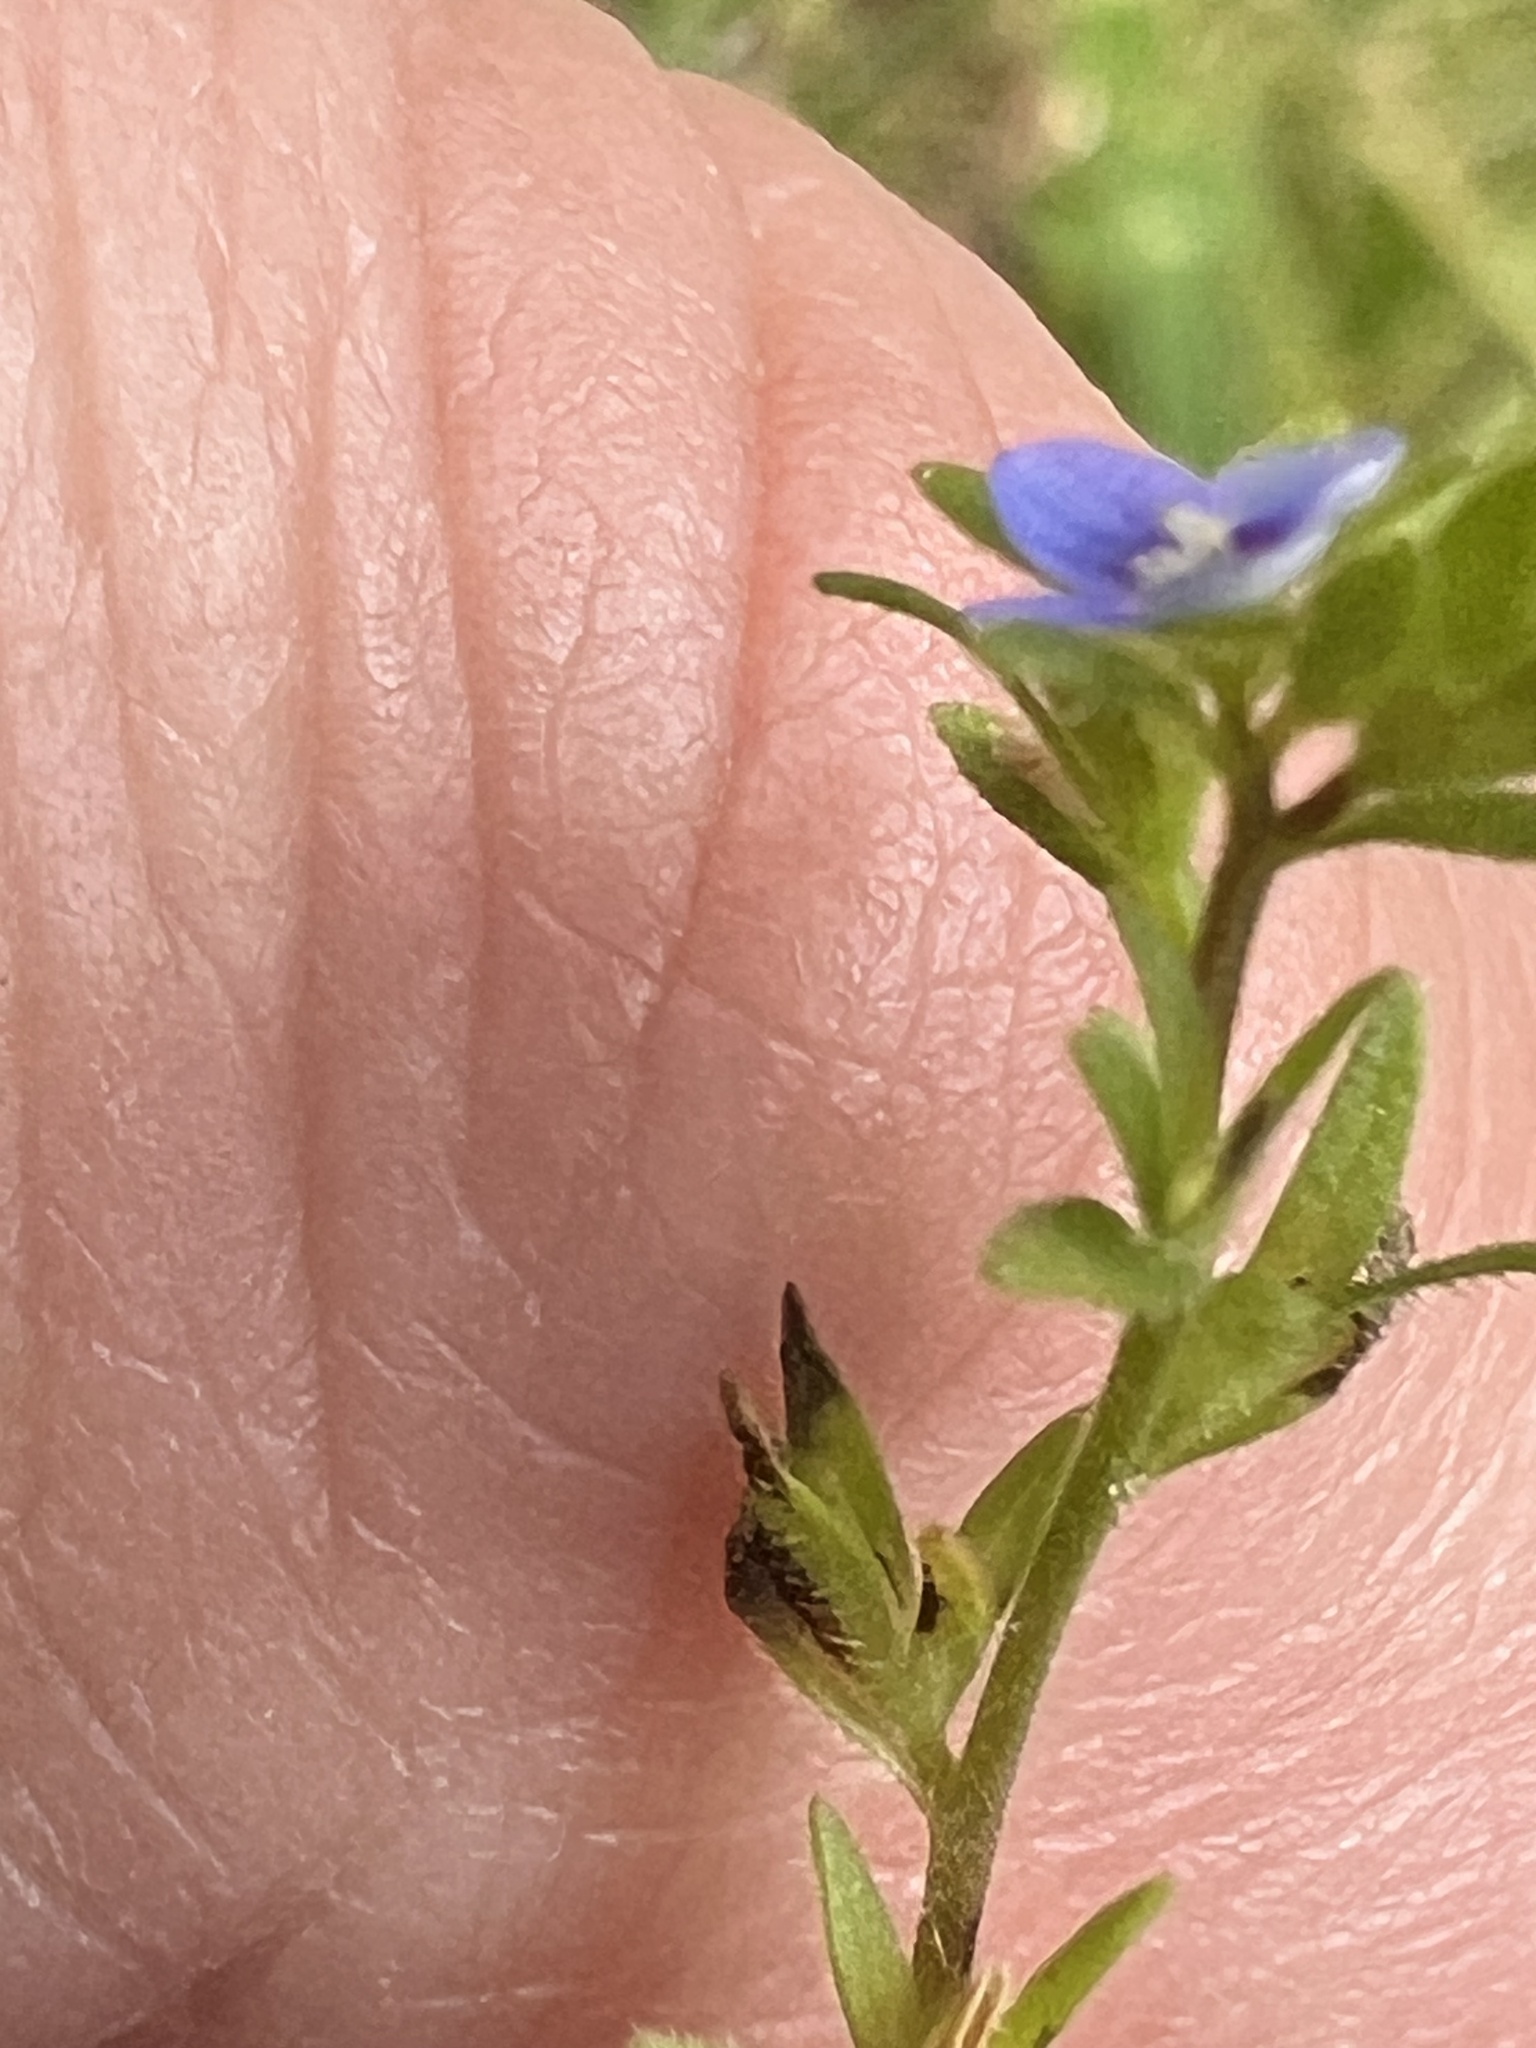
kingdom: Plantae
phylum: Tracheophyta
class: Magnoliopsida
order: Lamiales
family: Plantaginaceae
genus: Veronica
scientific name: Veronica arvensis
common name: Corn speedwell
